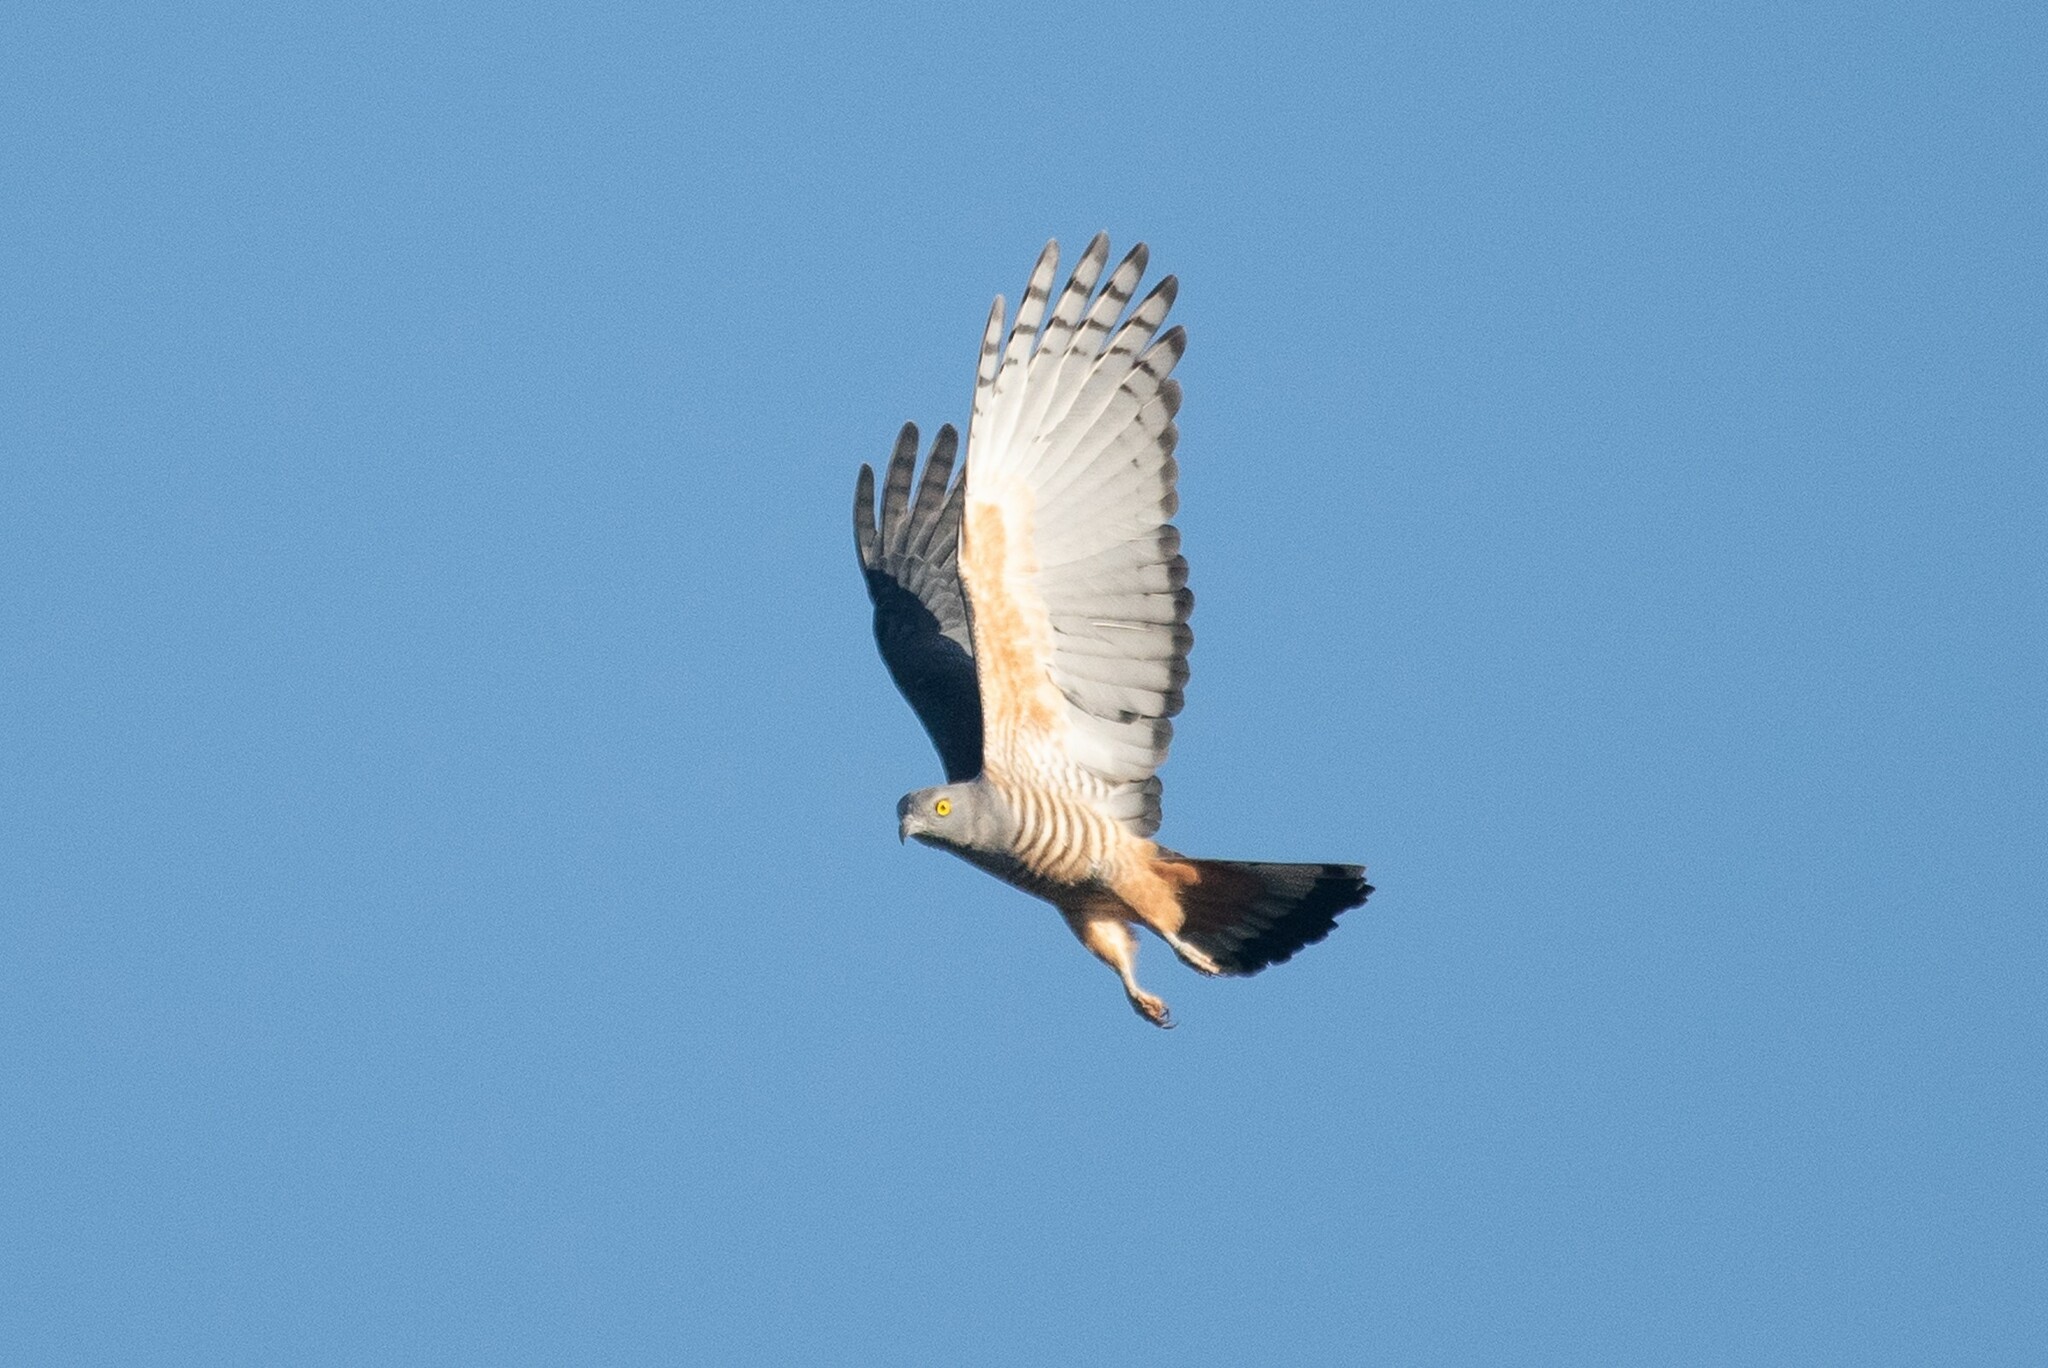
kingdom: Animalia
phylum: Chordata
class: Aves
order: Accipitriformes
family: Accipitridae
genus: Aviceda
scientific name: Aviceda subcristata
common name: Pacific baza
